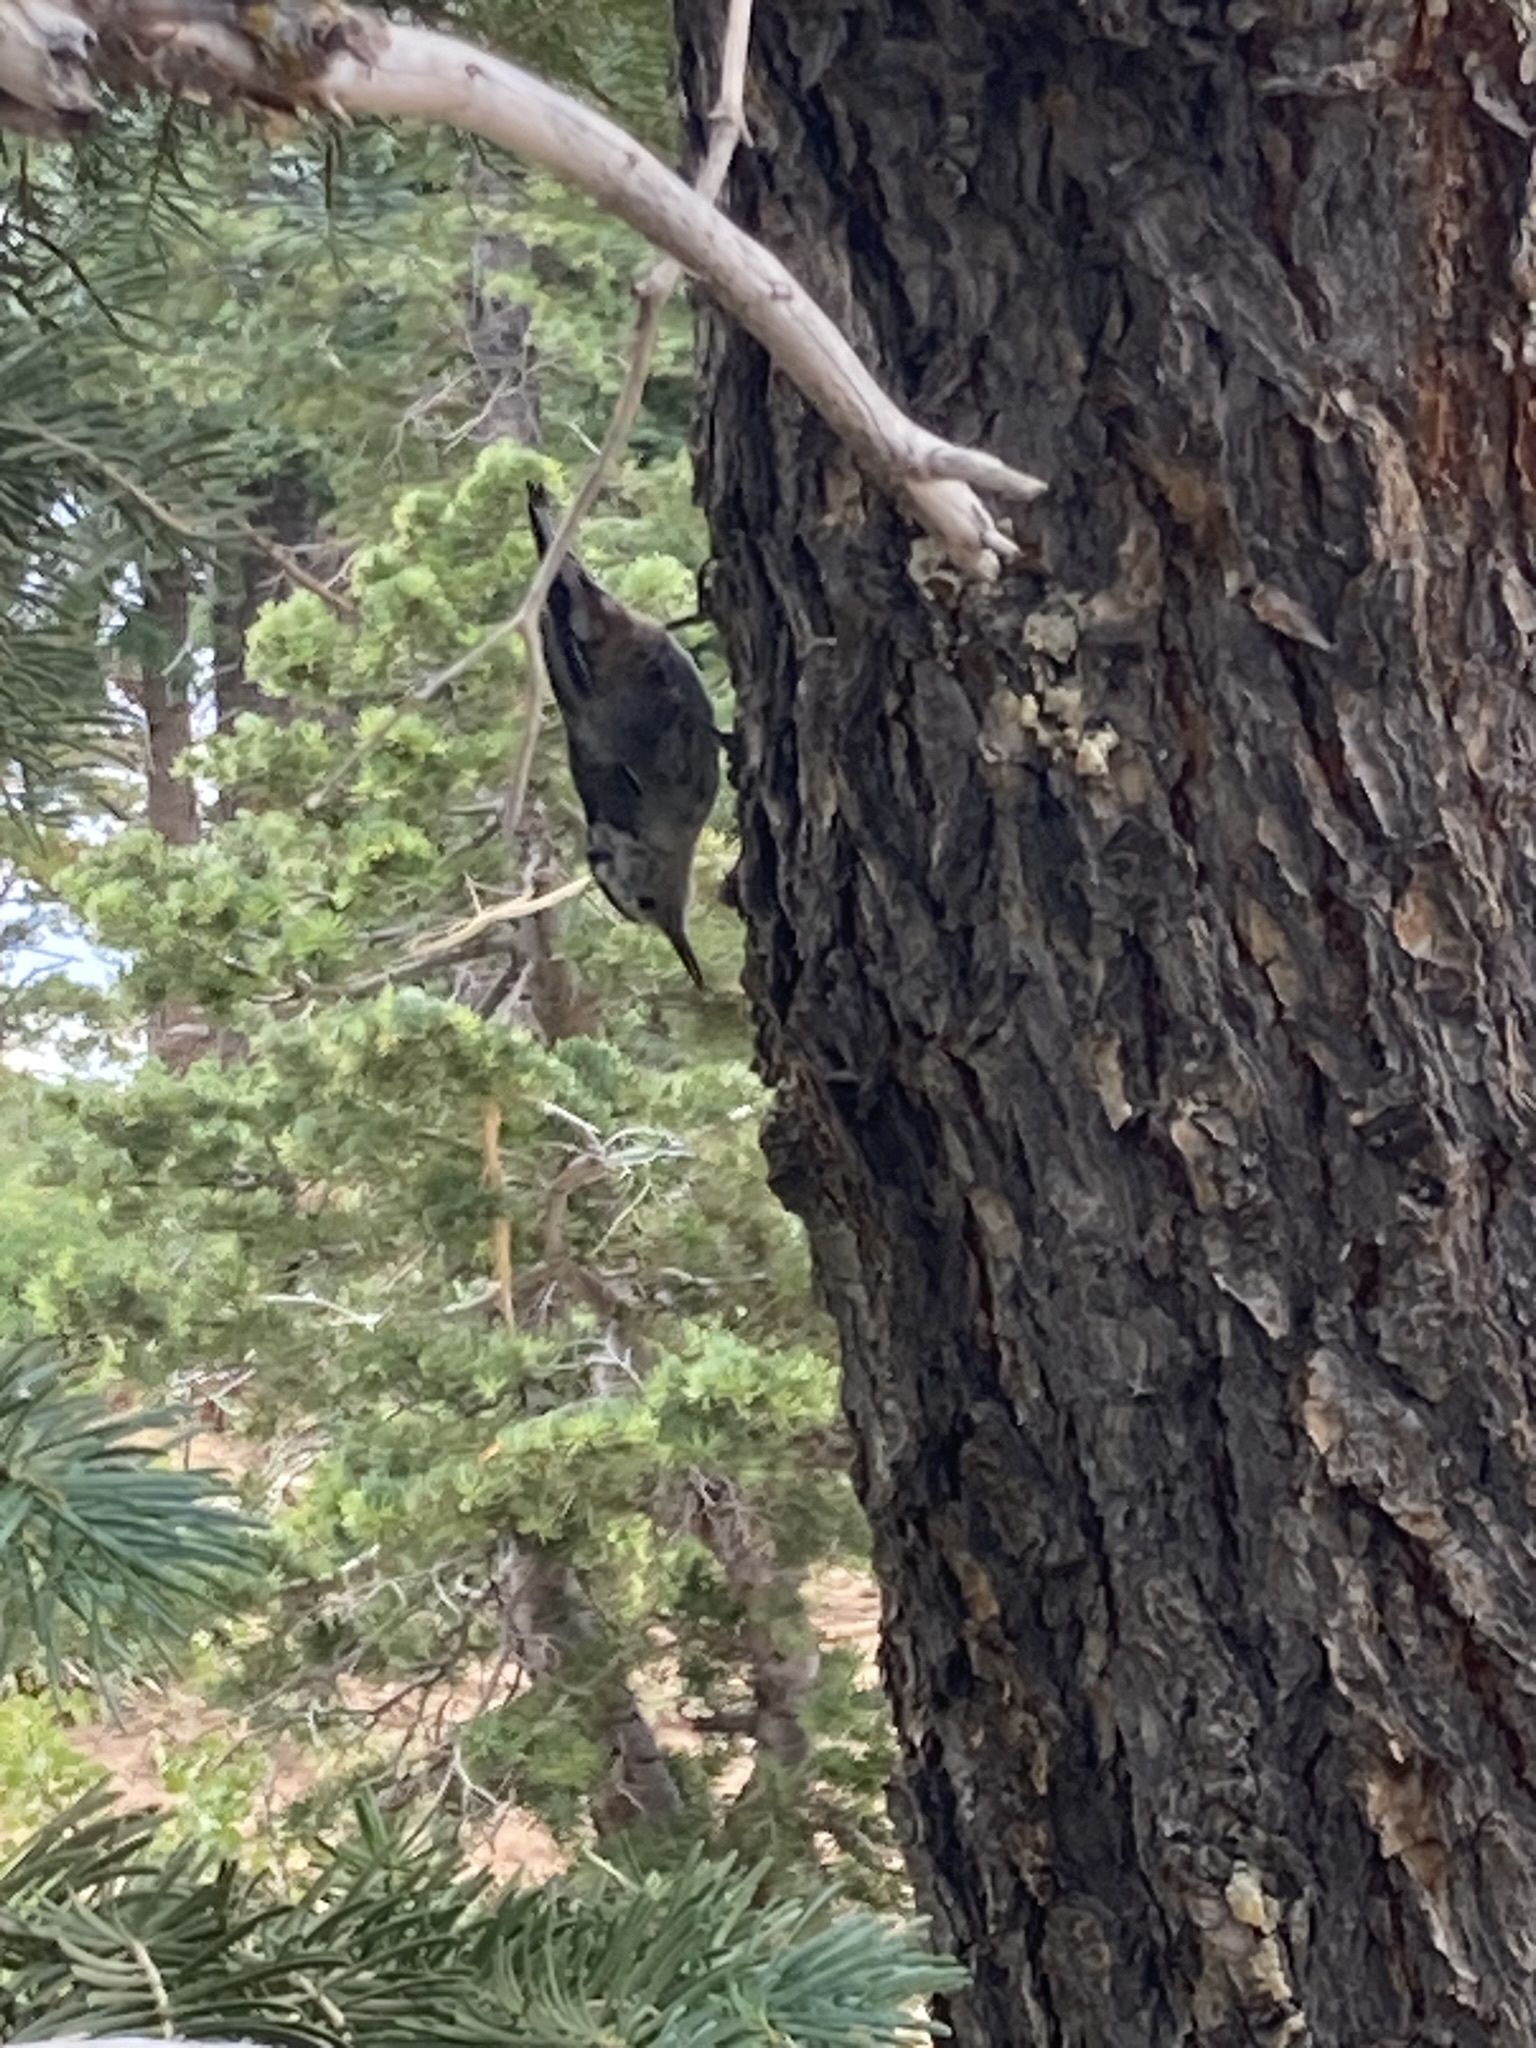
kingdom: Animalia
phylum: Chordata
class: Aves
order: Passeriformes
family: Sittidae
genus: Sitta
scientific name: Sitta carolinensis
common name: White-breasted nuthatch
